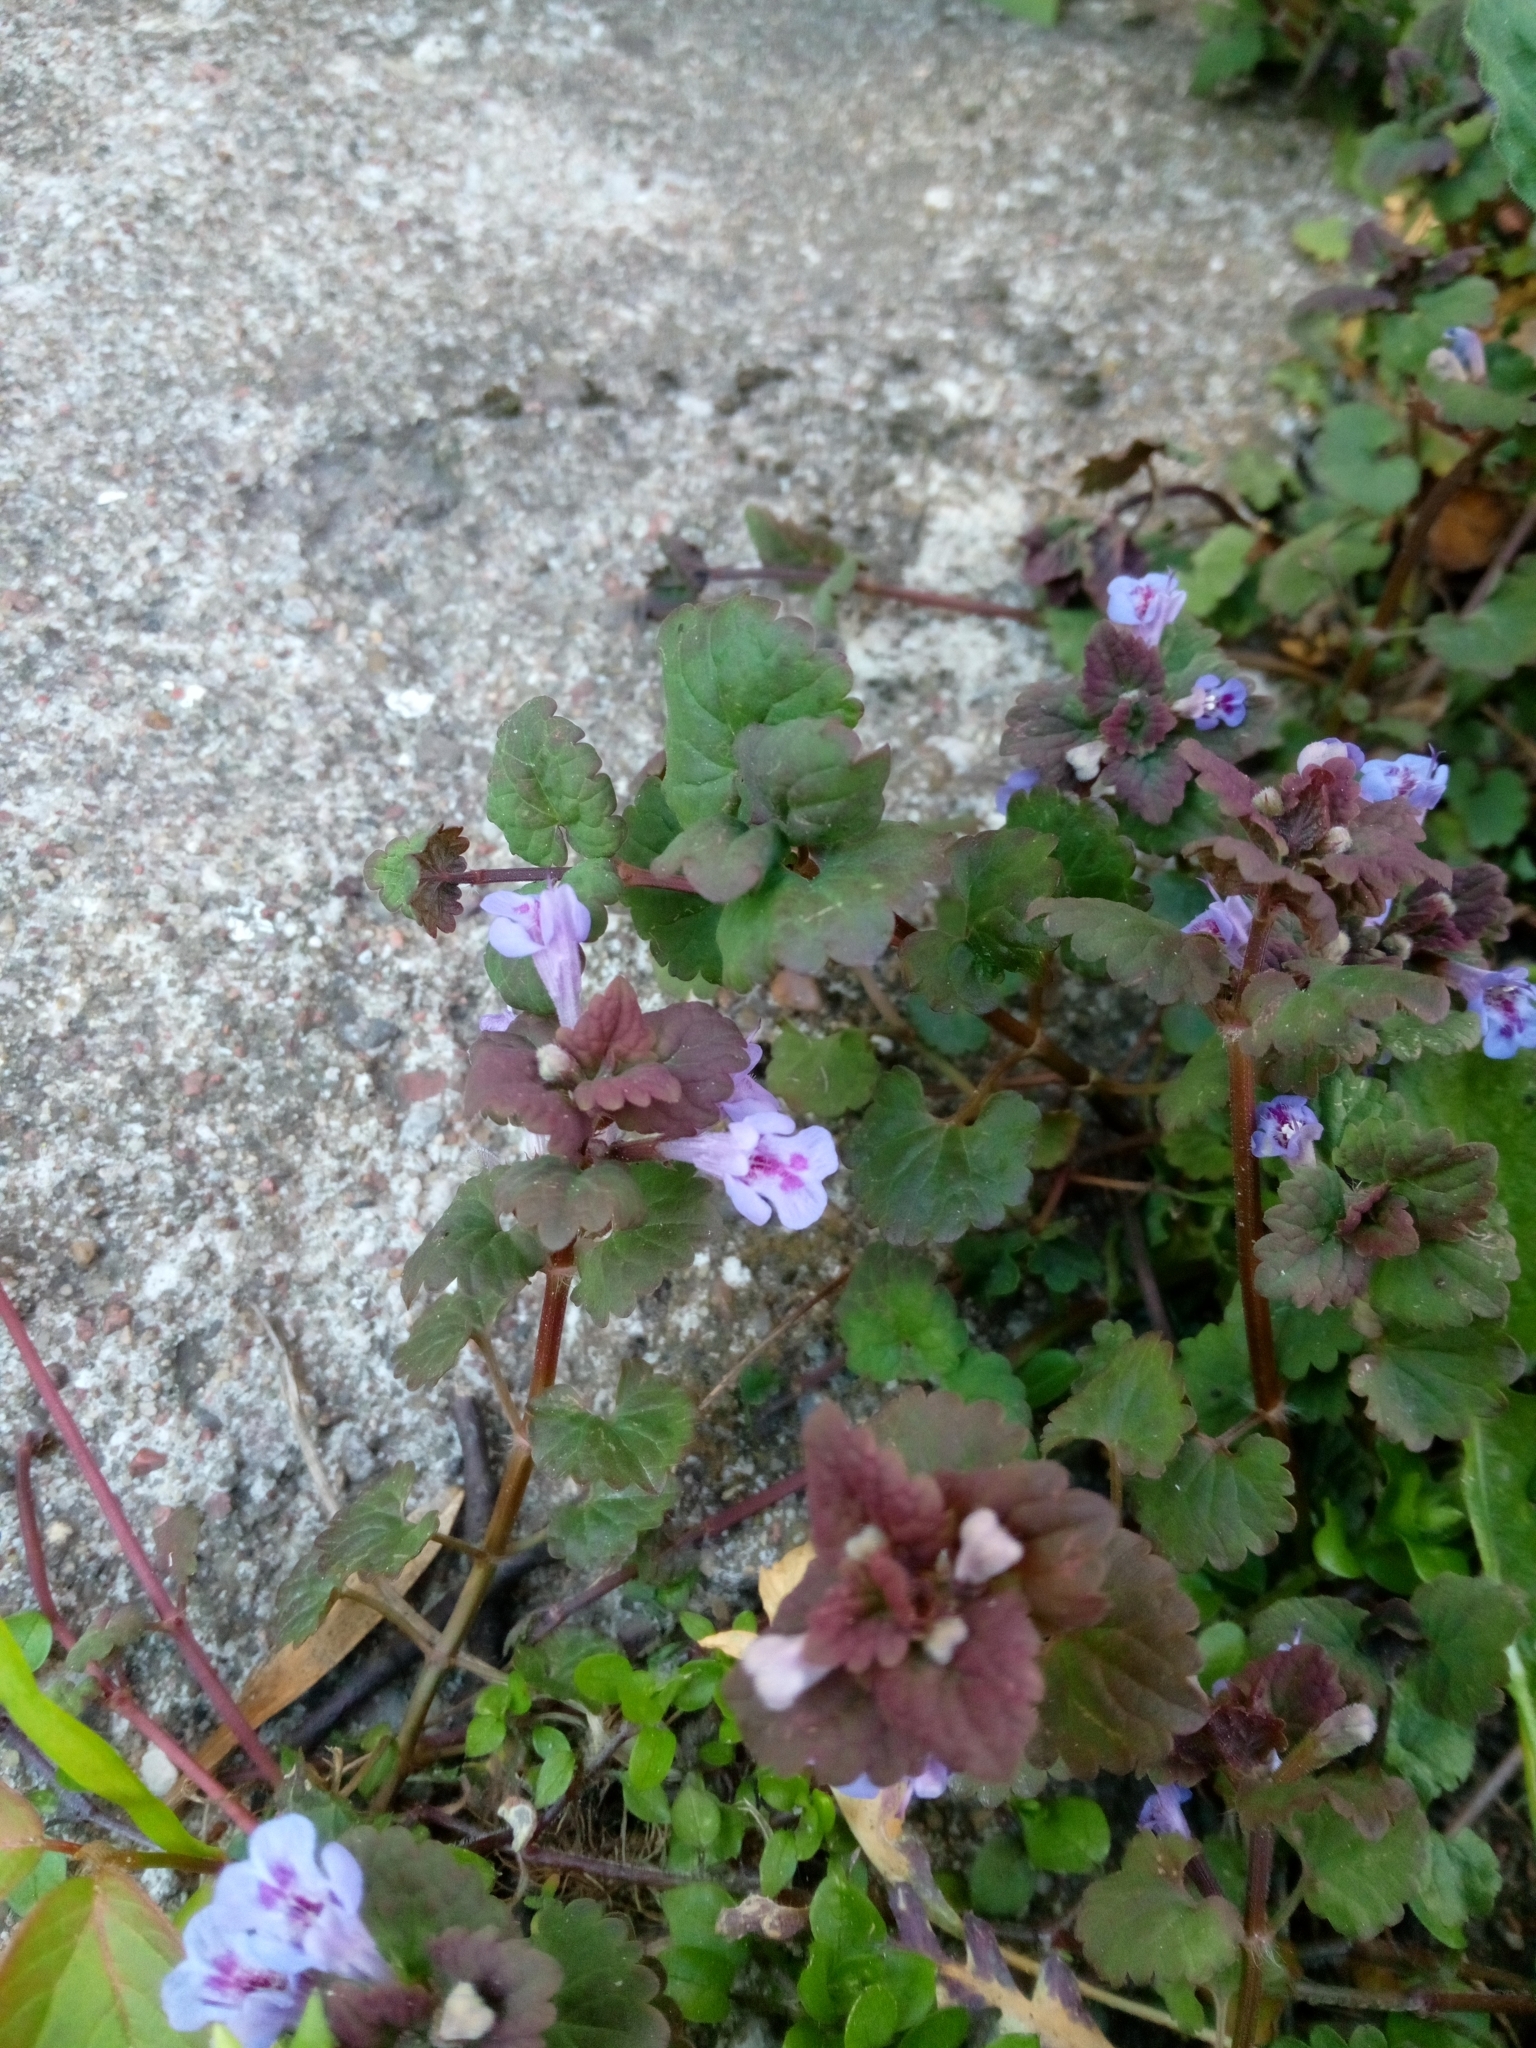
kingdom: Plantae
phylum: Tracheophyta
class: Magnoliopsida
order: Lamiales
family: Lamiaceae
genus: Glechoma
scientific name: Glechoma hederacea
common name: Ground ivy
